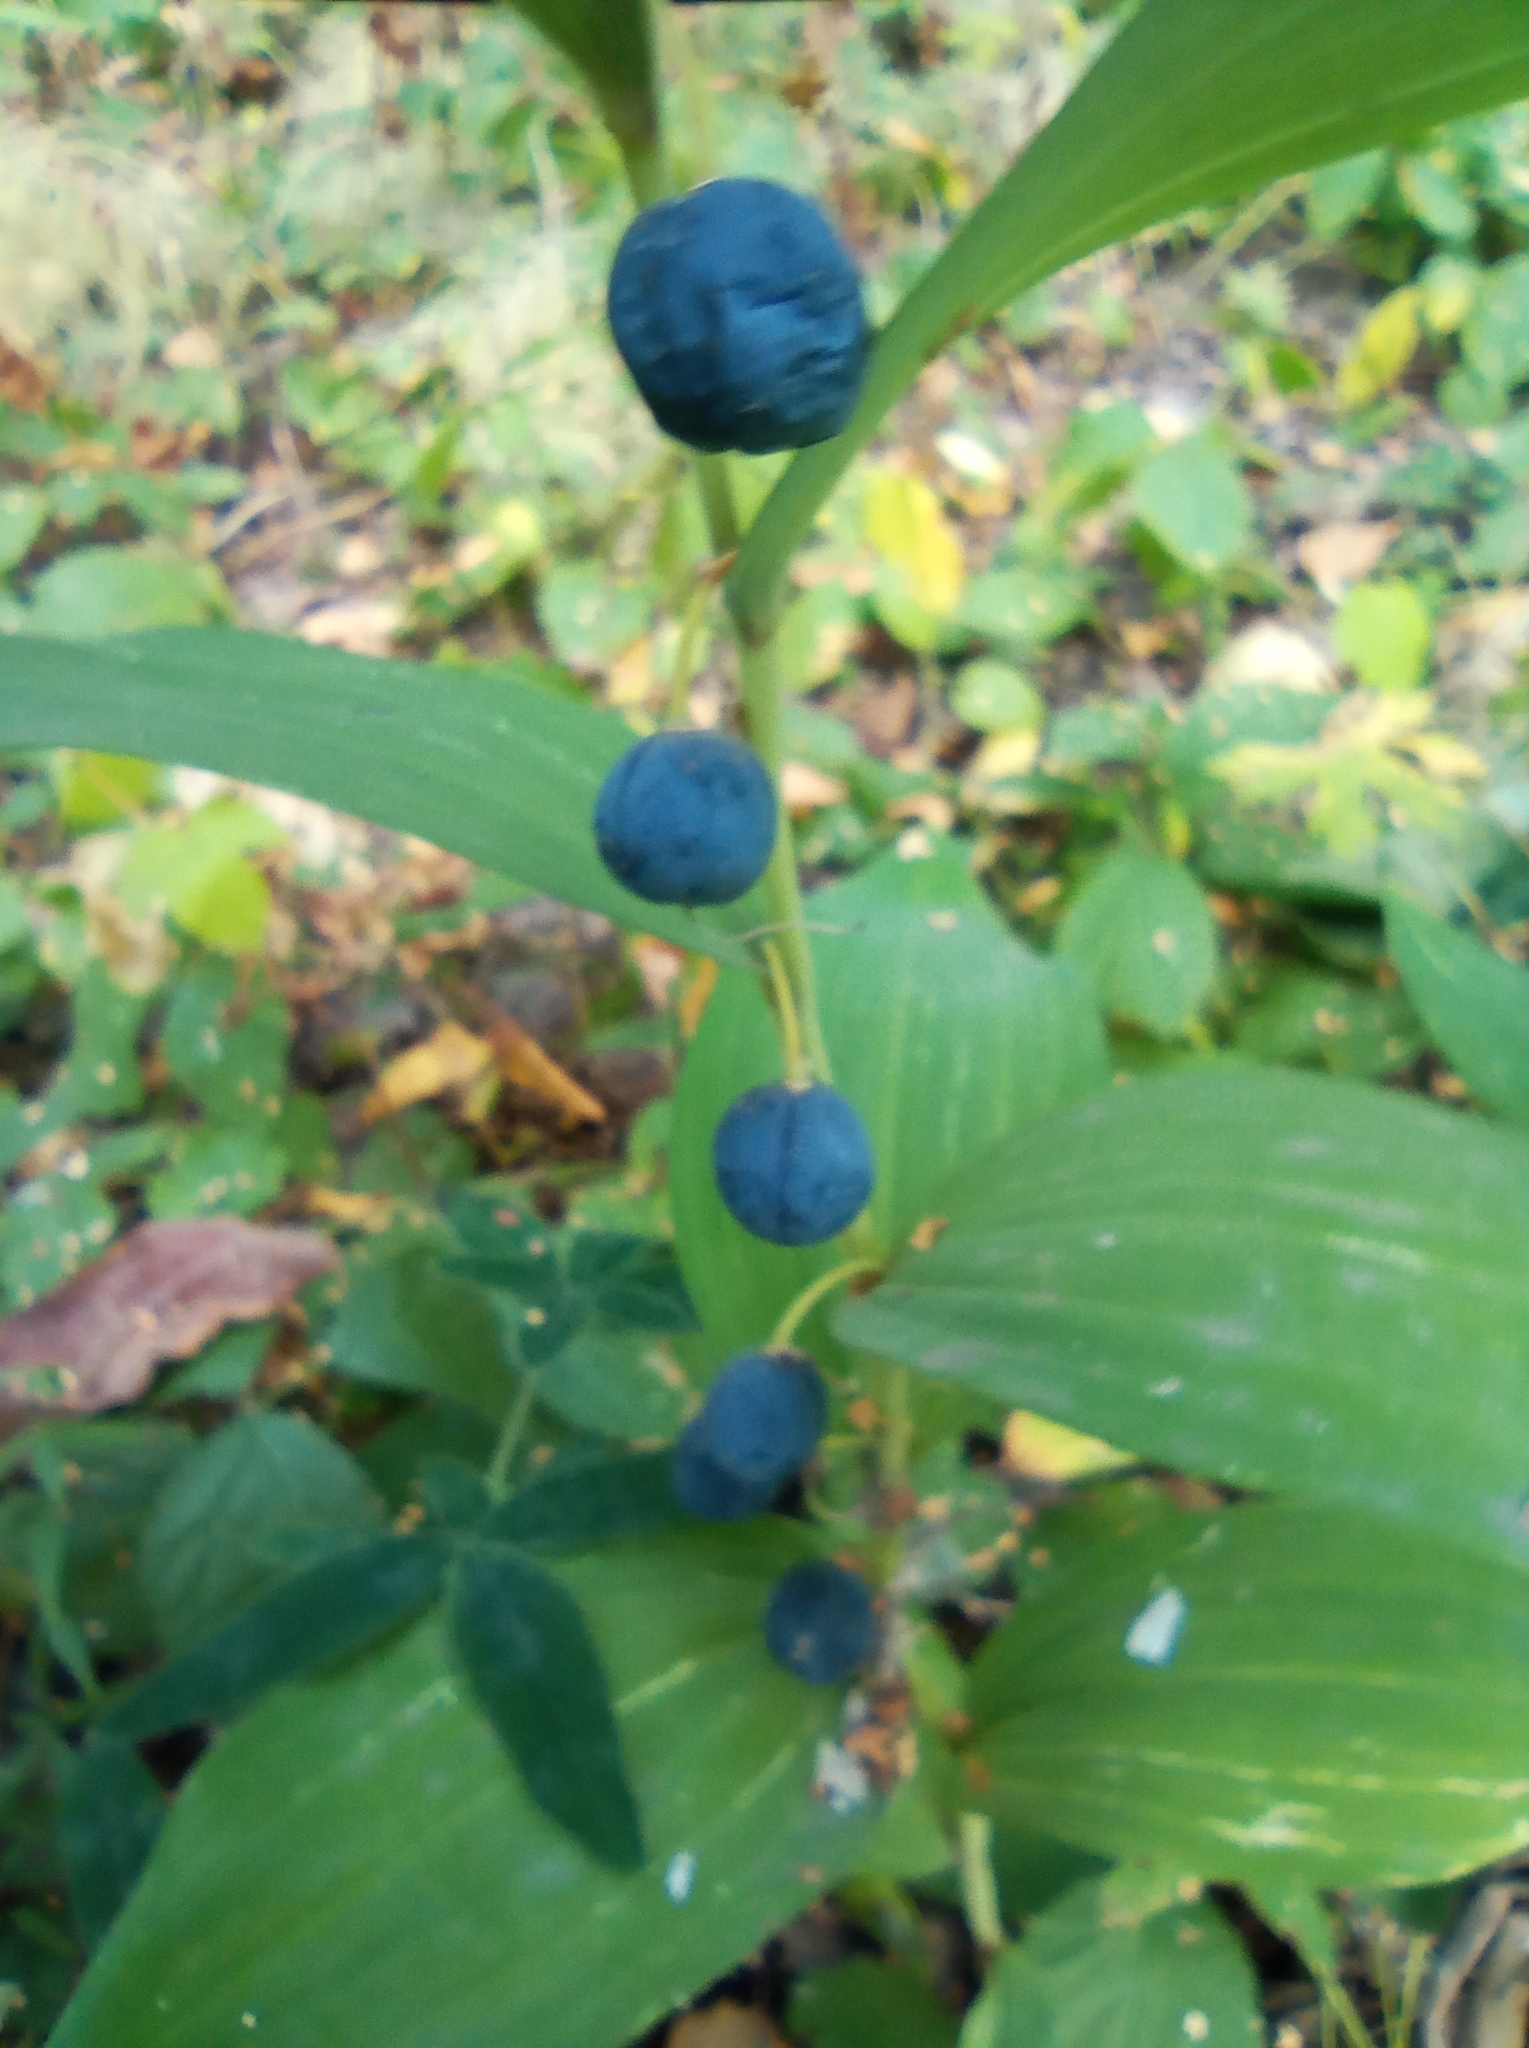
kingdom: Plantae
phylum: Tracheophyta
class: Liliopsida
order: Asparagales
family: Asparagaceae
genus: Polygonatum
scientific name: Polygonatum odoratum
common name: Angular solomon's-seal
